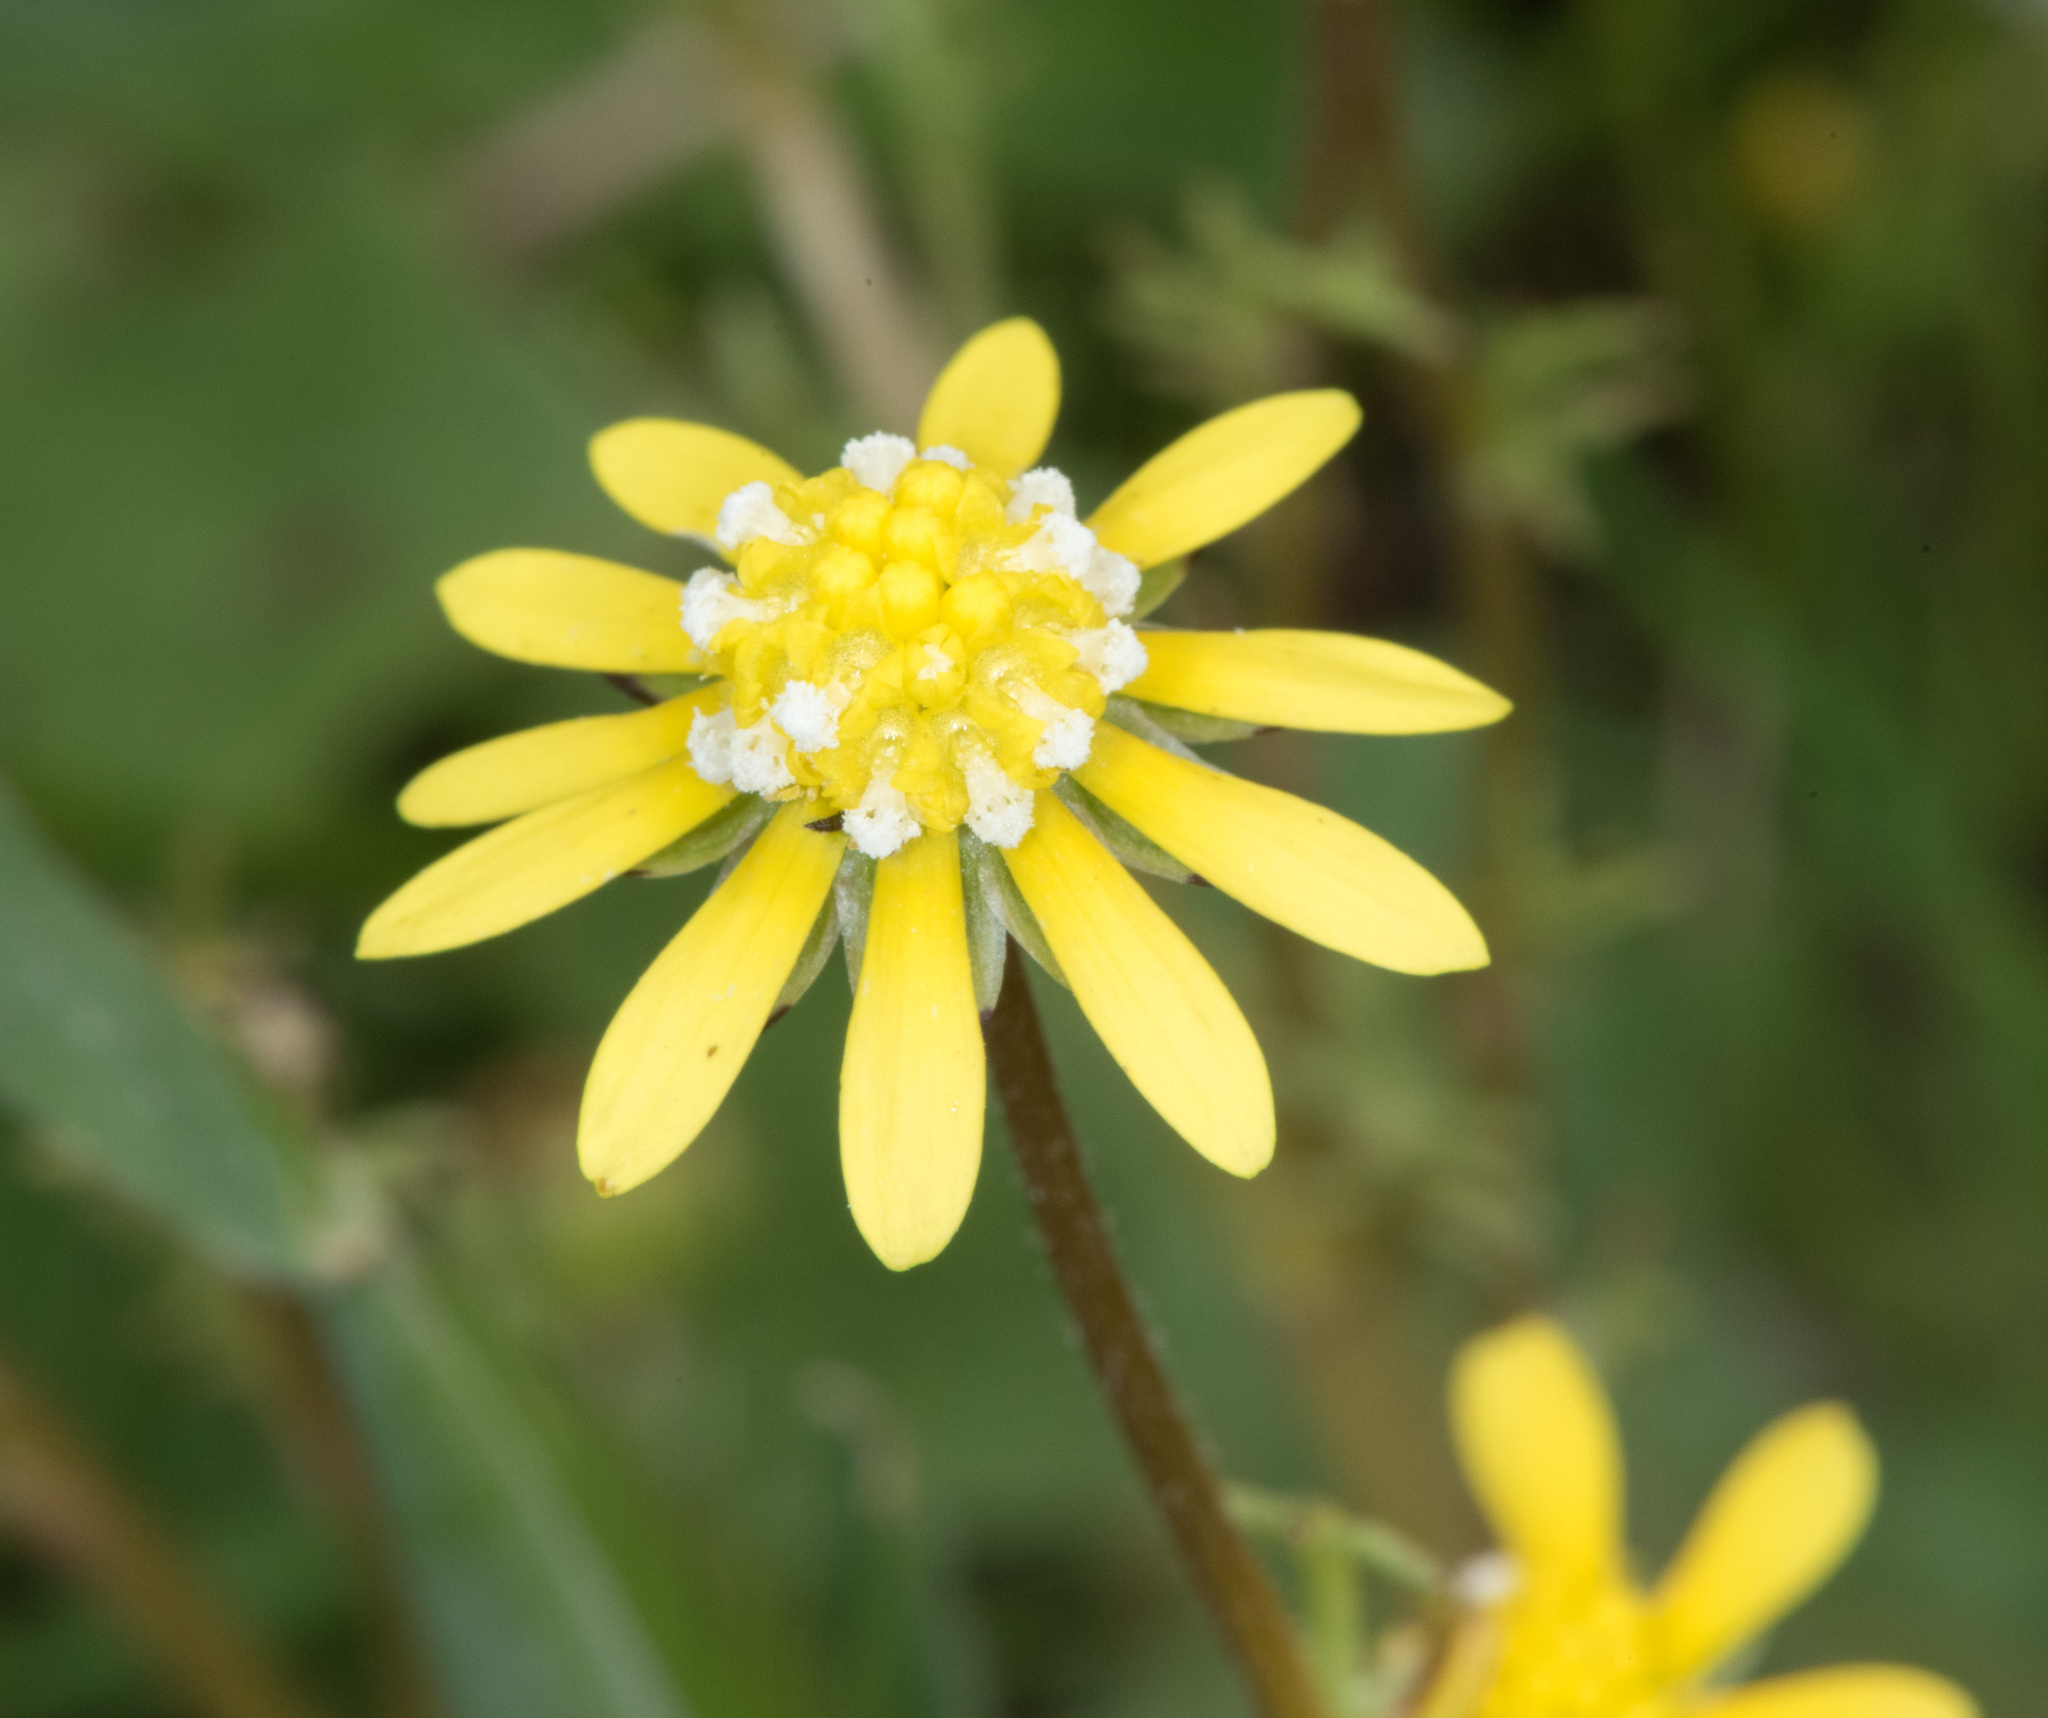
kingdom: Plantae
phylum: Tracheophyta
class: Magnoliopsida
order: Asterales
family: Asteraceae
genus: Blennosperma
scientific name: Blennosperma nanum
